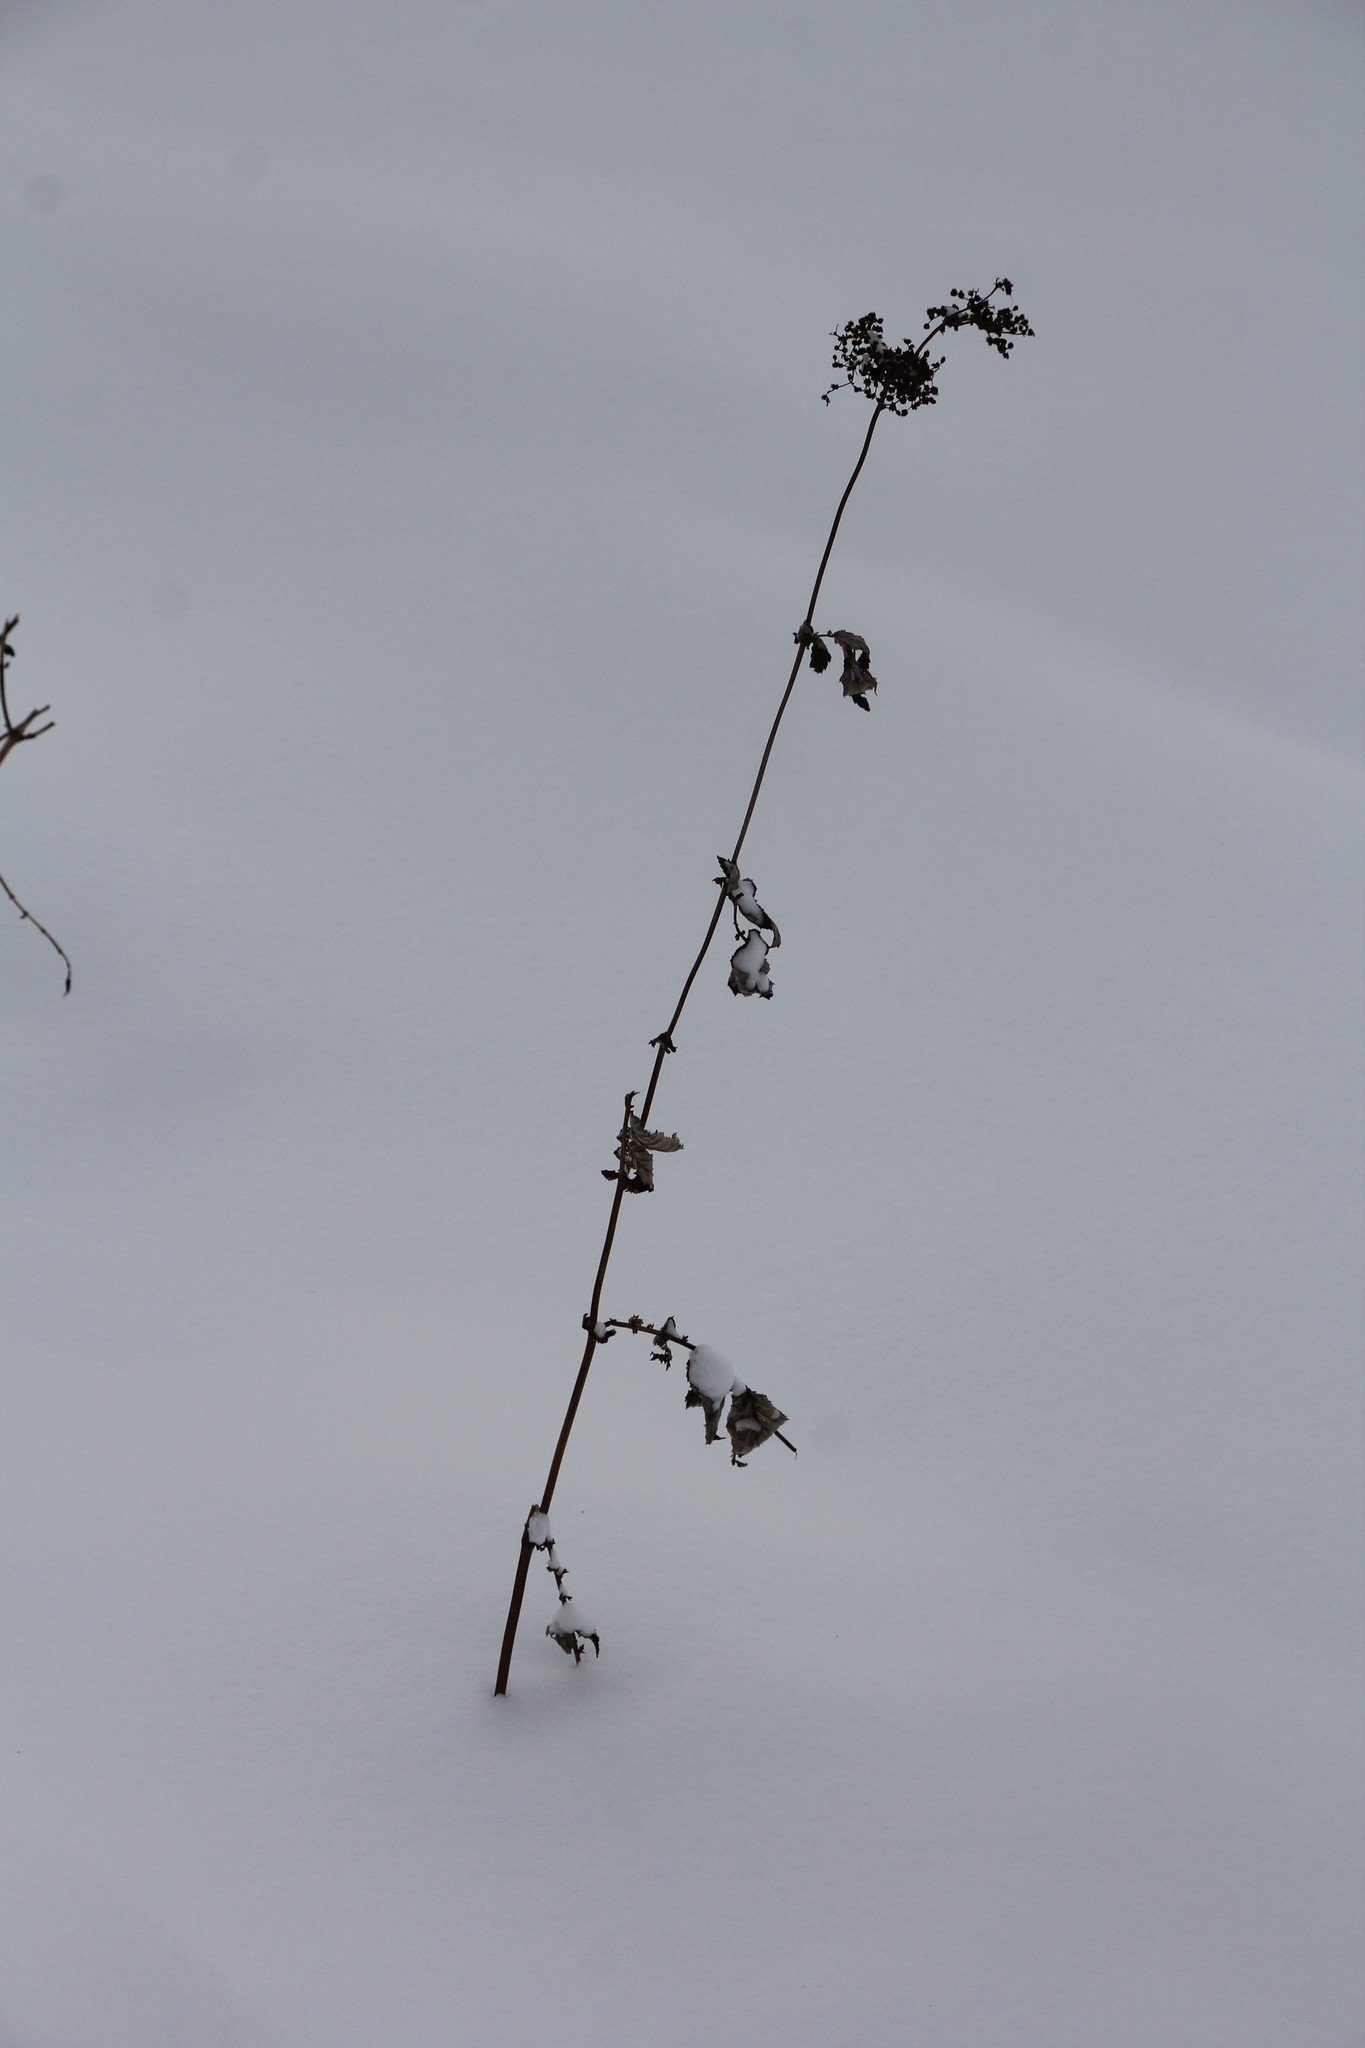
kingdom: Plantae
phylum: Tracheophyta
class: Magnoliopsida
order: Rosales
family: Rosaceae
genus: Filipendula
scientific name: Filipendula ulmaria
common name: Meadowsweet
